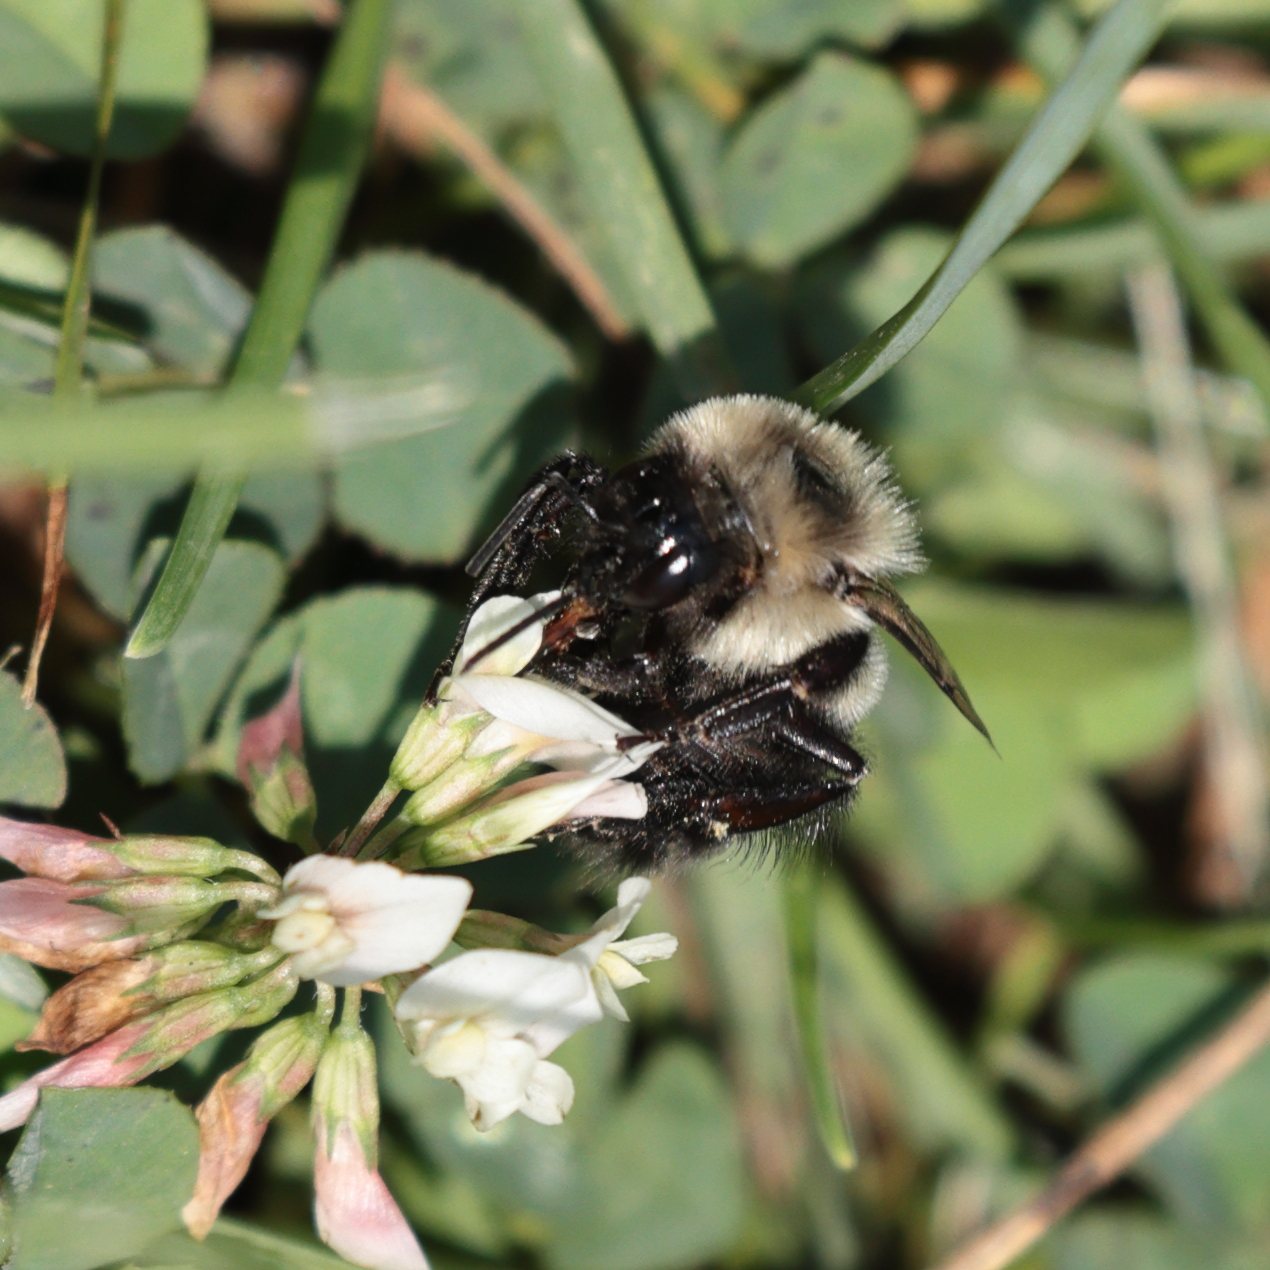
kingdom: Animalia
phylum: Arthropoda
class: Insecta
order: Hymenoptera
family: Apidae
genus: Bombus
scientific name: Bombus impatiens
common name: Common eastern bumble bee
